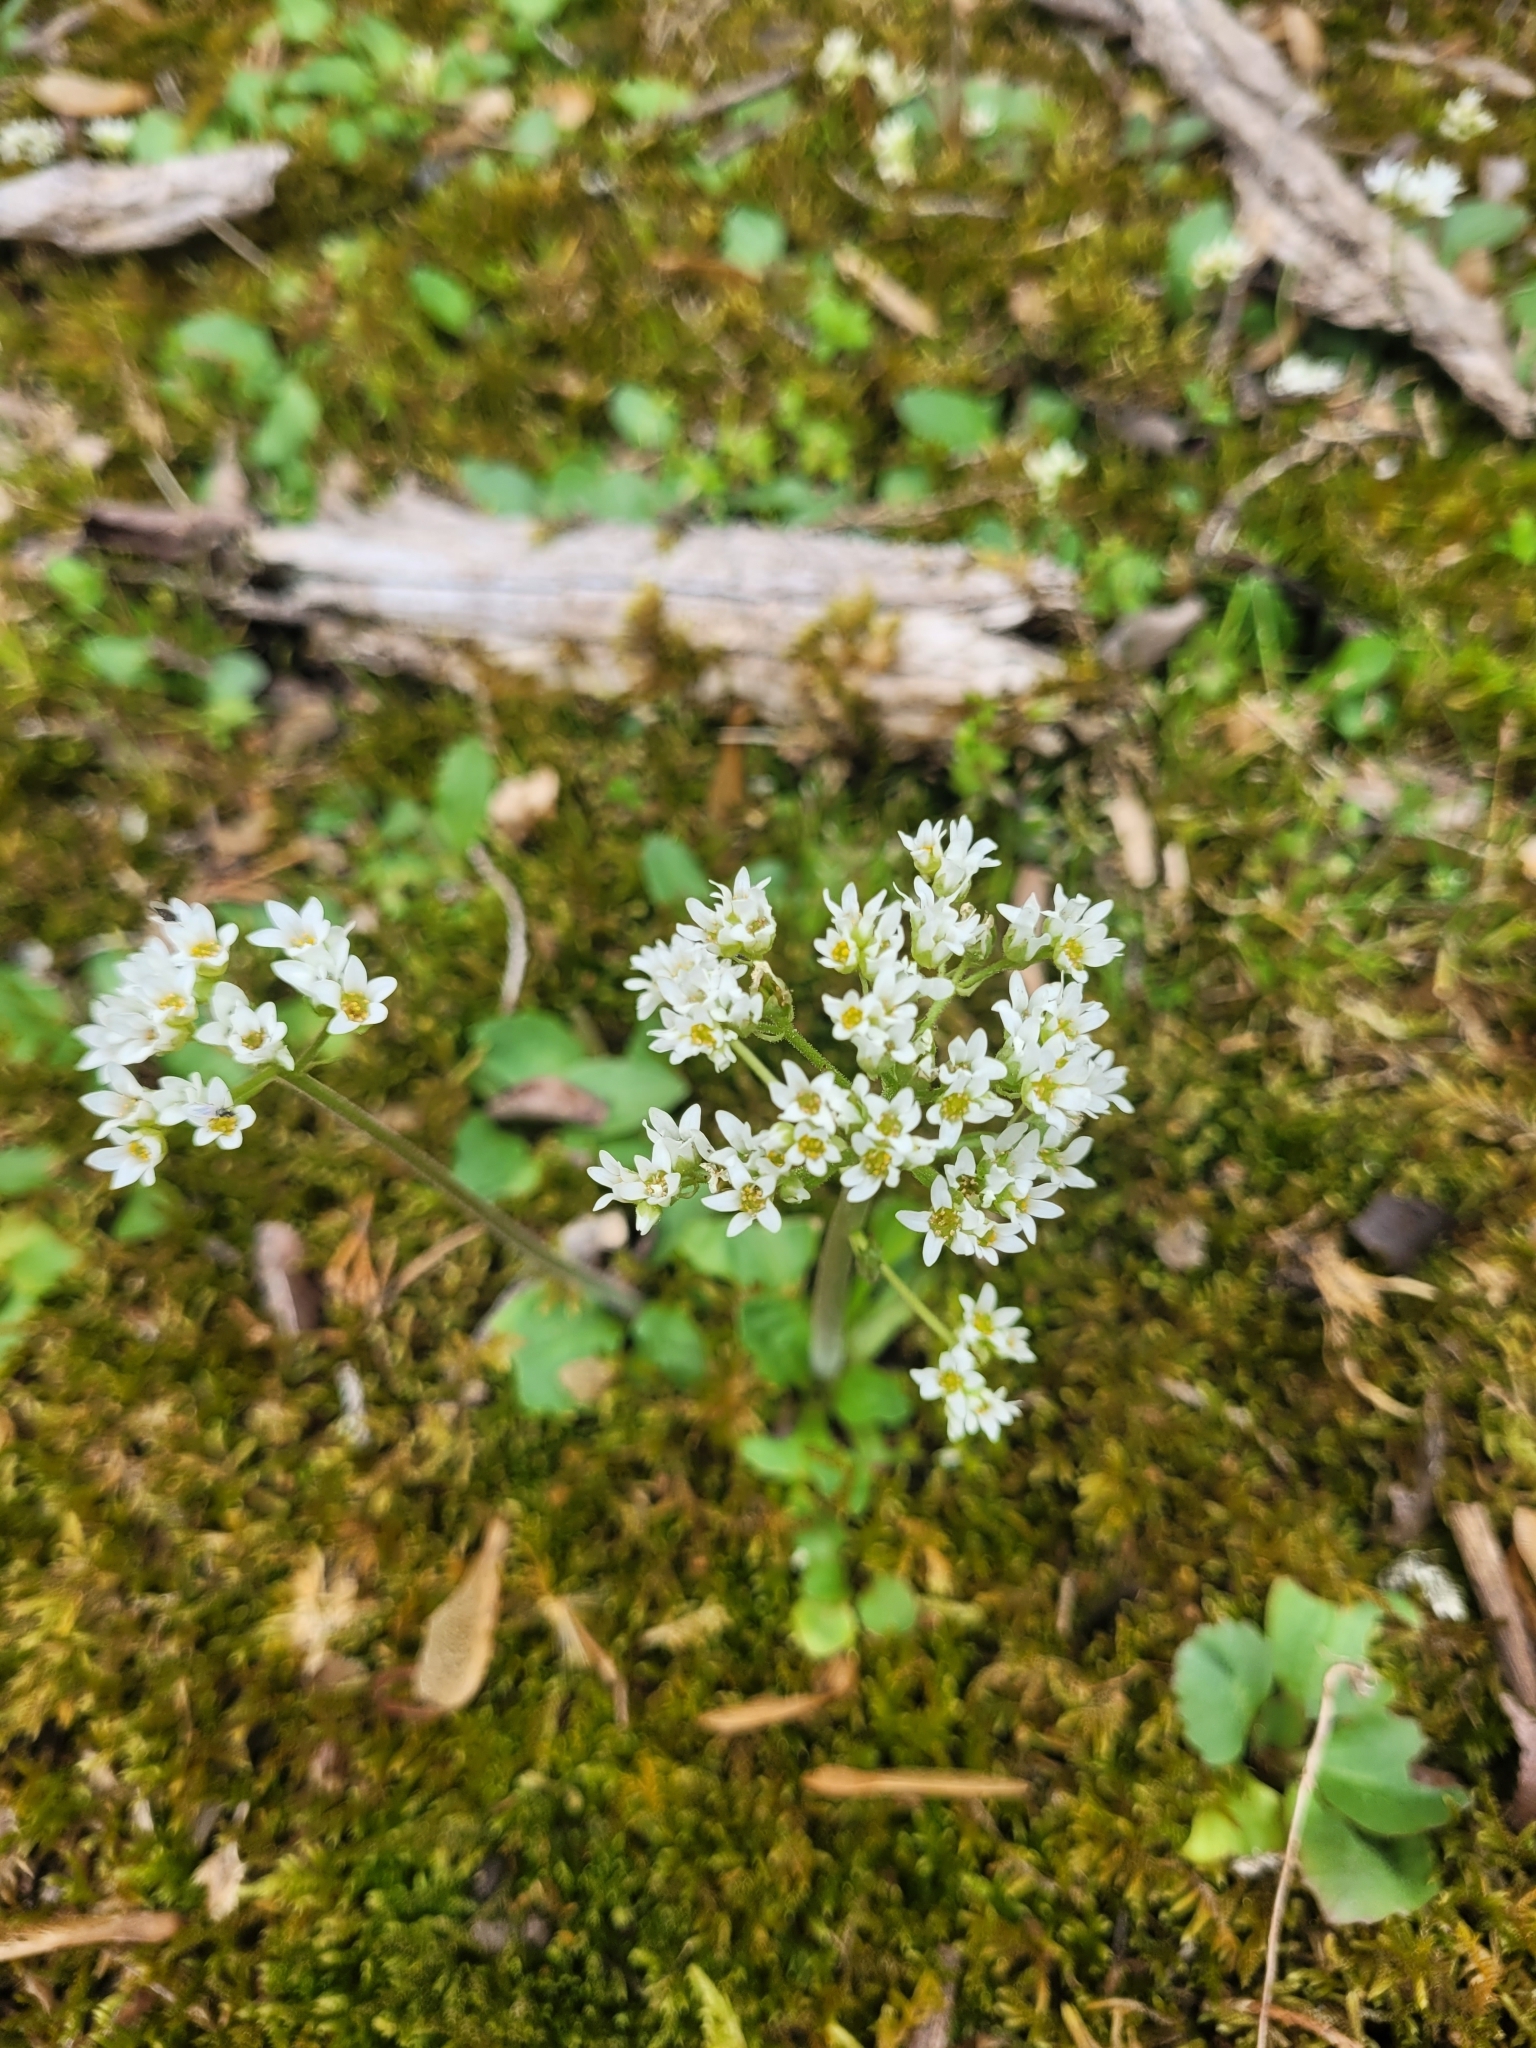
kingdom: Plantae
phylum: Tracheophyta
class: Magnoliopsida
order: Saxifragales
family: Saxifragaceae
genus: Micranthes
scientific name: Micranthes virginiensis
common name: Early saxifrage
